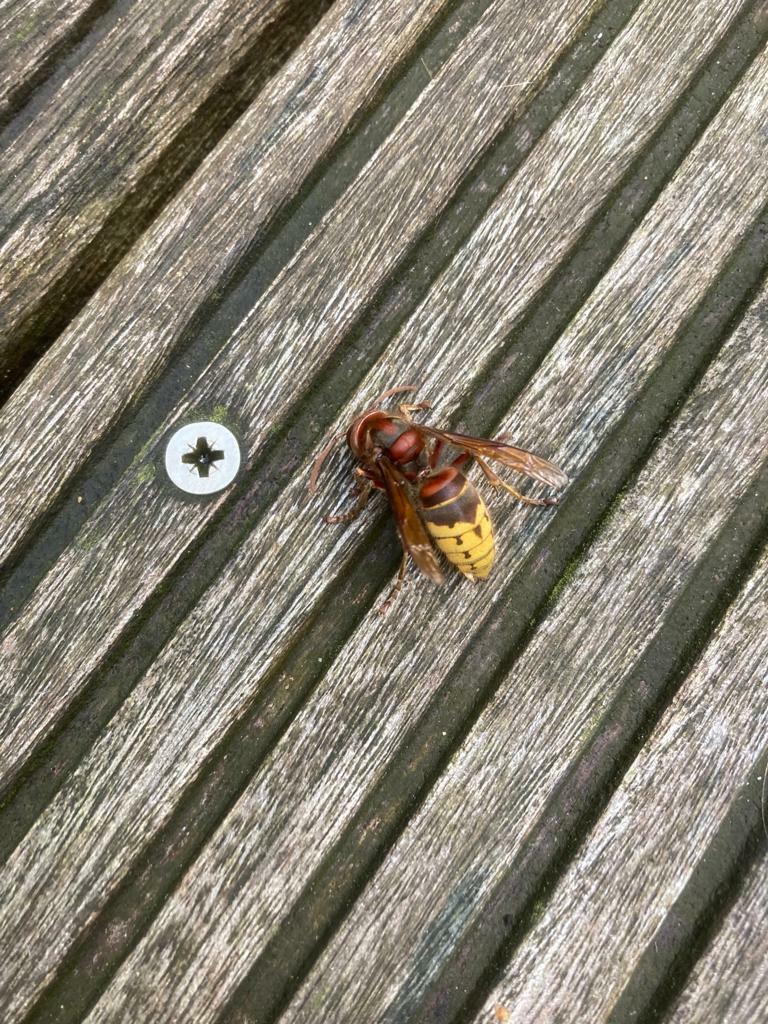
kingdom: Animalia
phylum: Arthropoda
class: Insecta
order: Hymenoptera
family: Vespidae
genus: Vespa
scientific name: Vespa crabro
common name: Hornet
